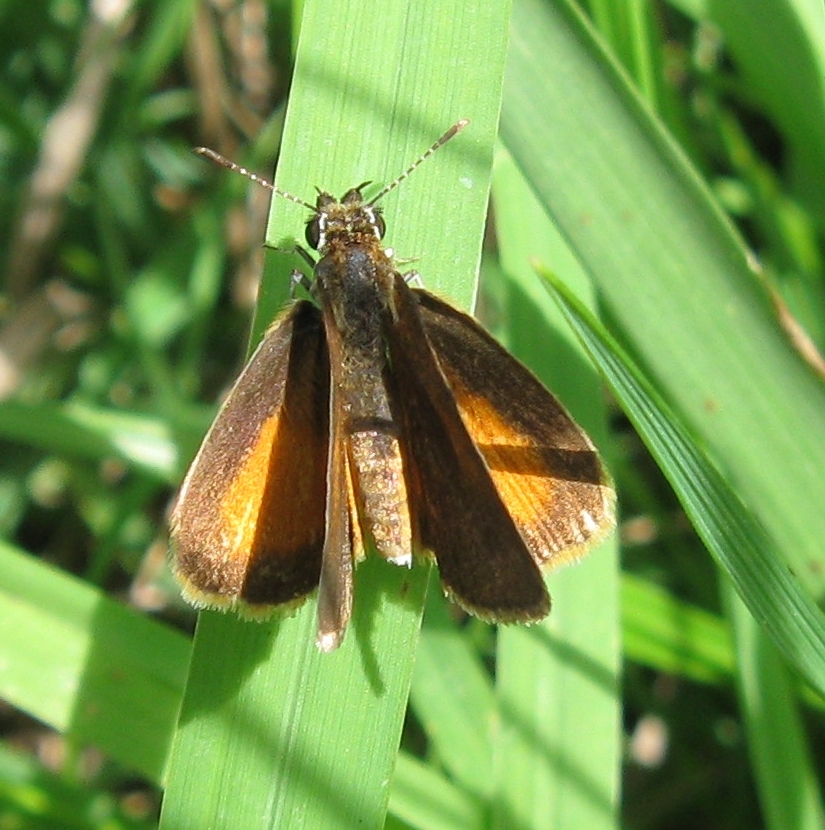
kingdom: Animalia
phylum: Arthropoda
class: Insecta
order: Lepidoptera
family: Hesperiidae
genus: Ancyloxypha
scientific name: Ancyloxypha numitor
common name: Least skipper
